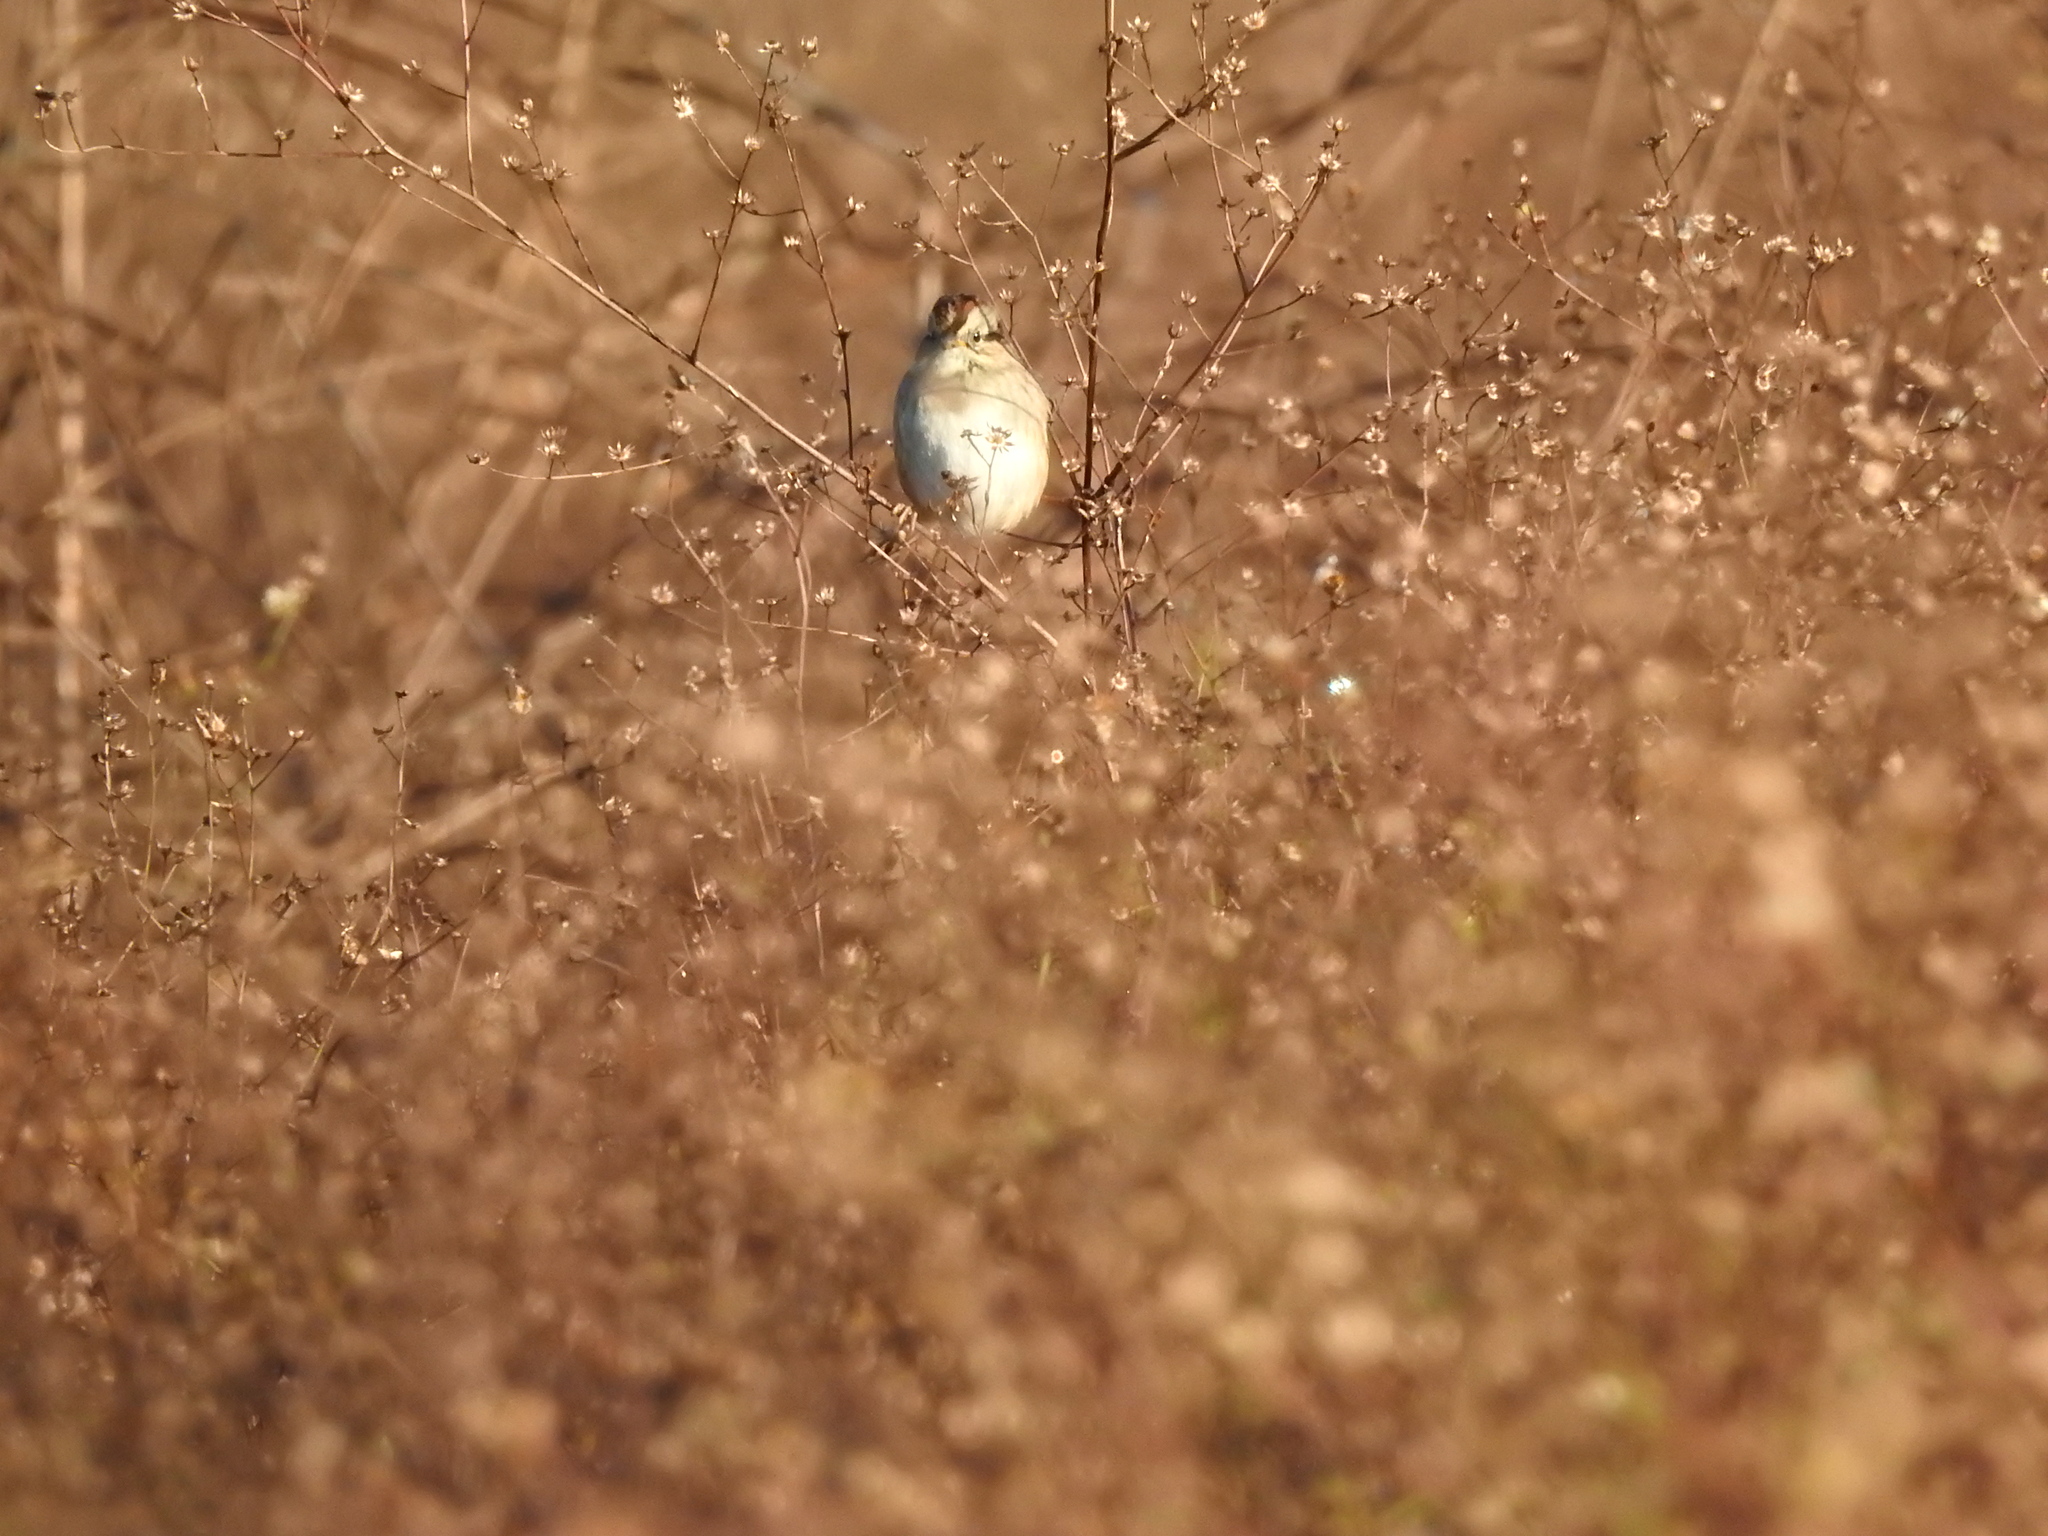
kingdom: Animalia
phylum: Chordata
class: Aves
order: Passeriformes
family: Passerellidae
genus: Melospiza
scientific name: Melospiza georgiana
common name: Swamp sparrow
